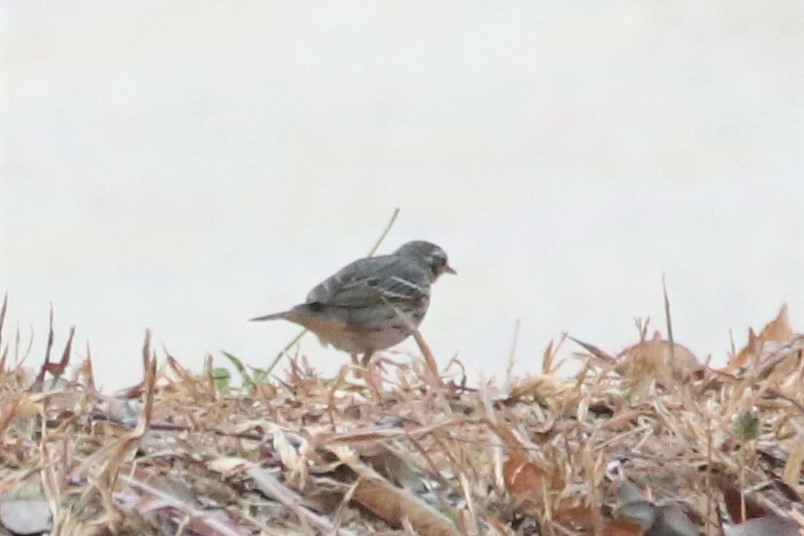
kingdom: Animalia
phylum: Chordata
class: Aves
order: Passeriformes
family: Motacillidae
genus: Anthus
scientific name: Anthus hodgsoni
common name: Olive-backed pipit
